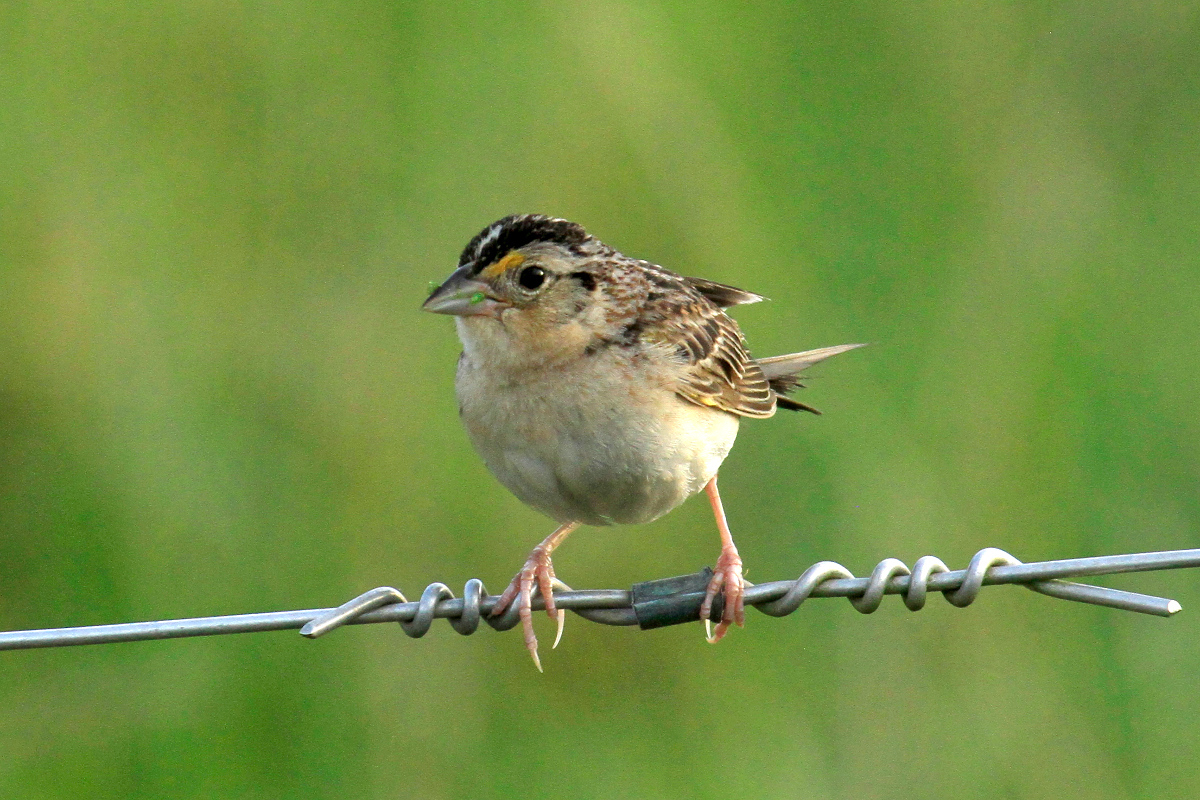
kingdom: Animalia
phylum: Chordata
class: Aves
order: Passeriformes
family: Passerellidae
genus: Ammodramus
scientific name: Ammodramus savannarum
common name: Grasshopper sparrow
